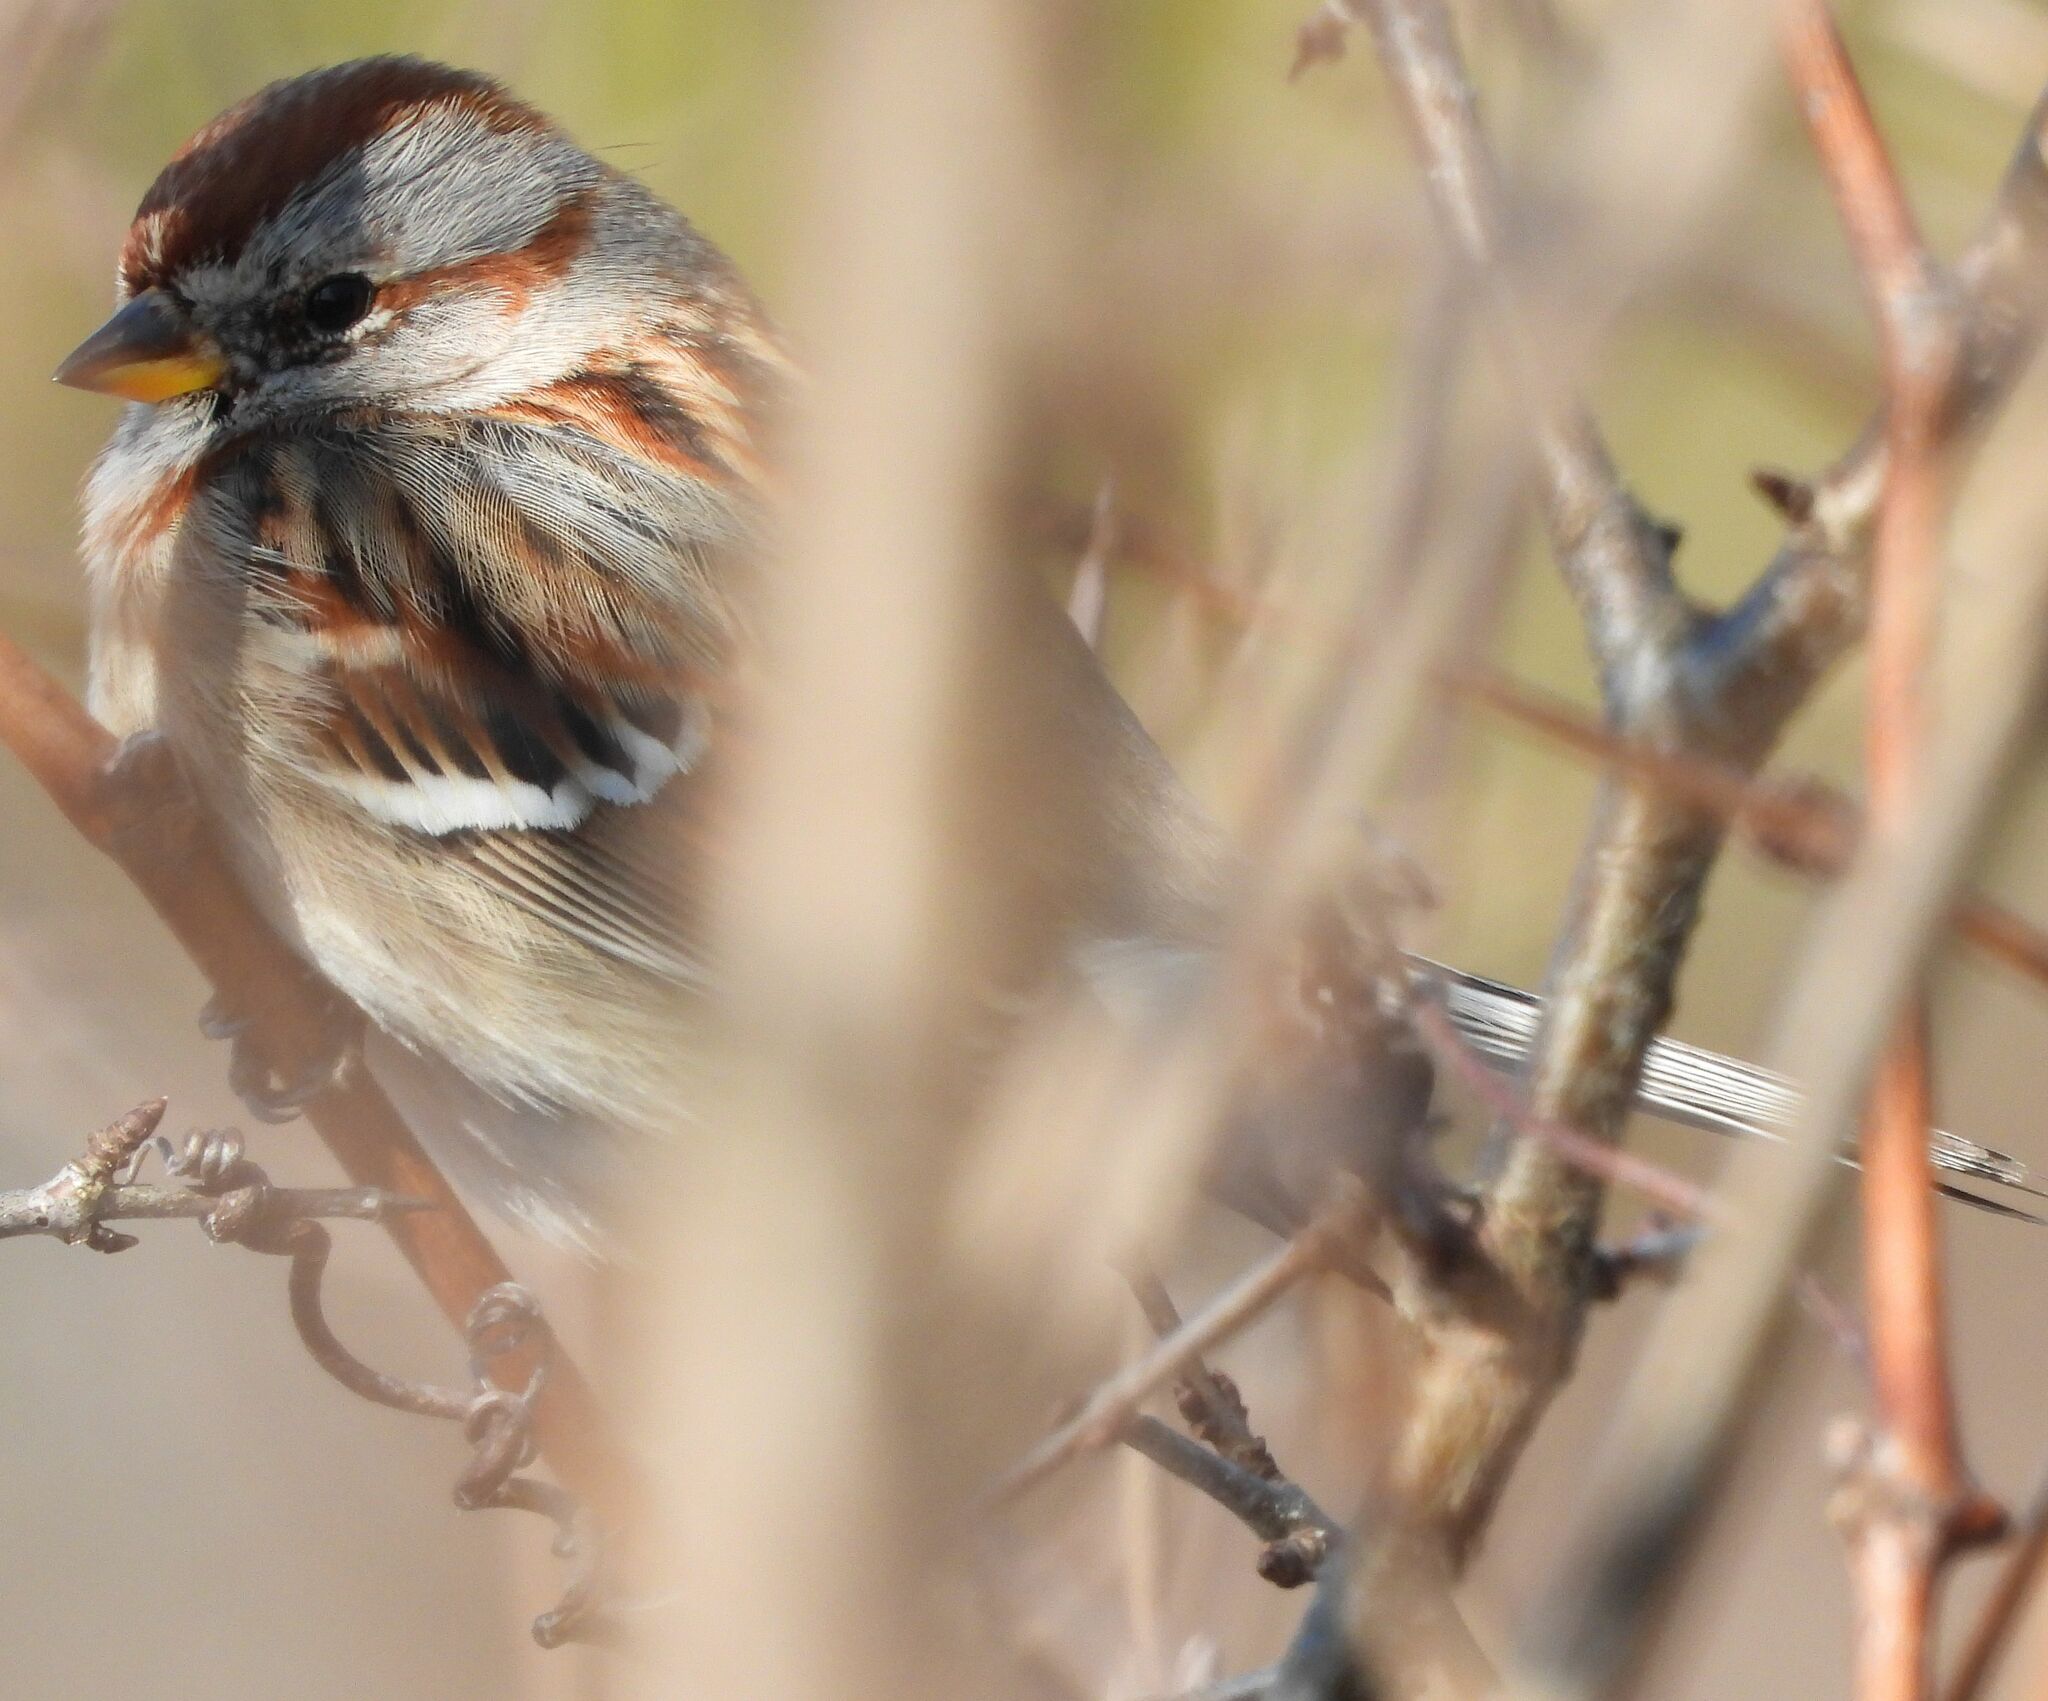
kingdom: Animalia
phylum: Chordata
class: Aves
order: Passeriformes
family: Passerellidae
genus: Spizelloides
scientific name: Spizelloides arborea
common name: American tree sparrow
